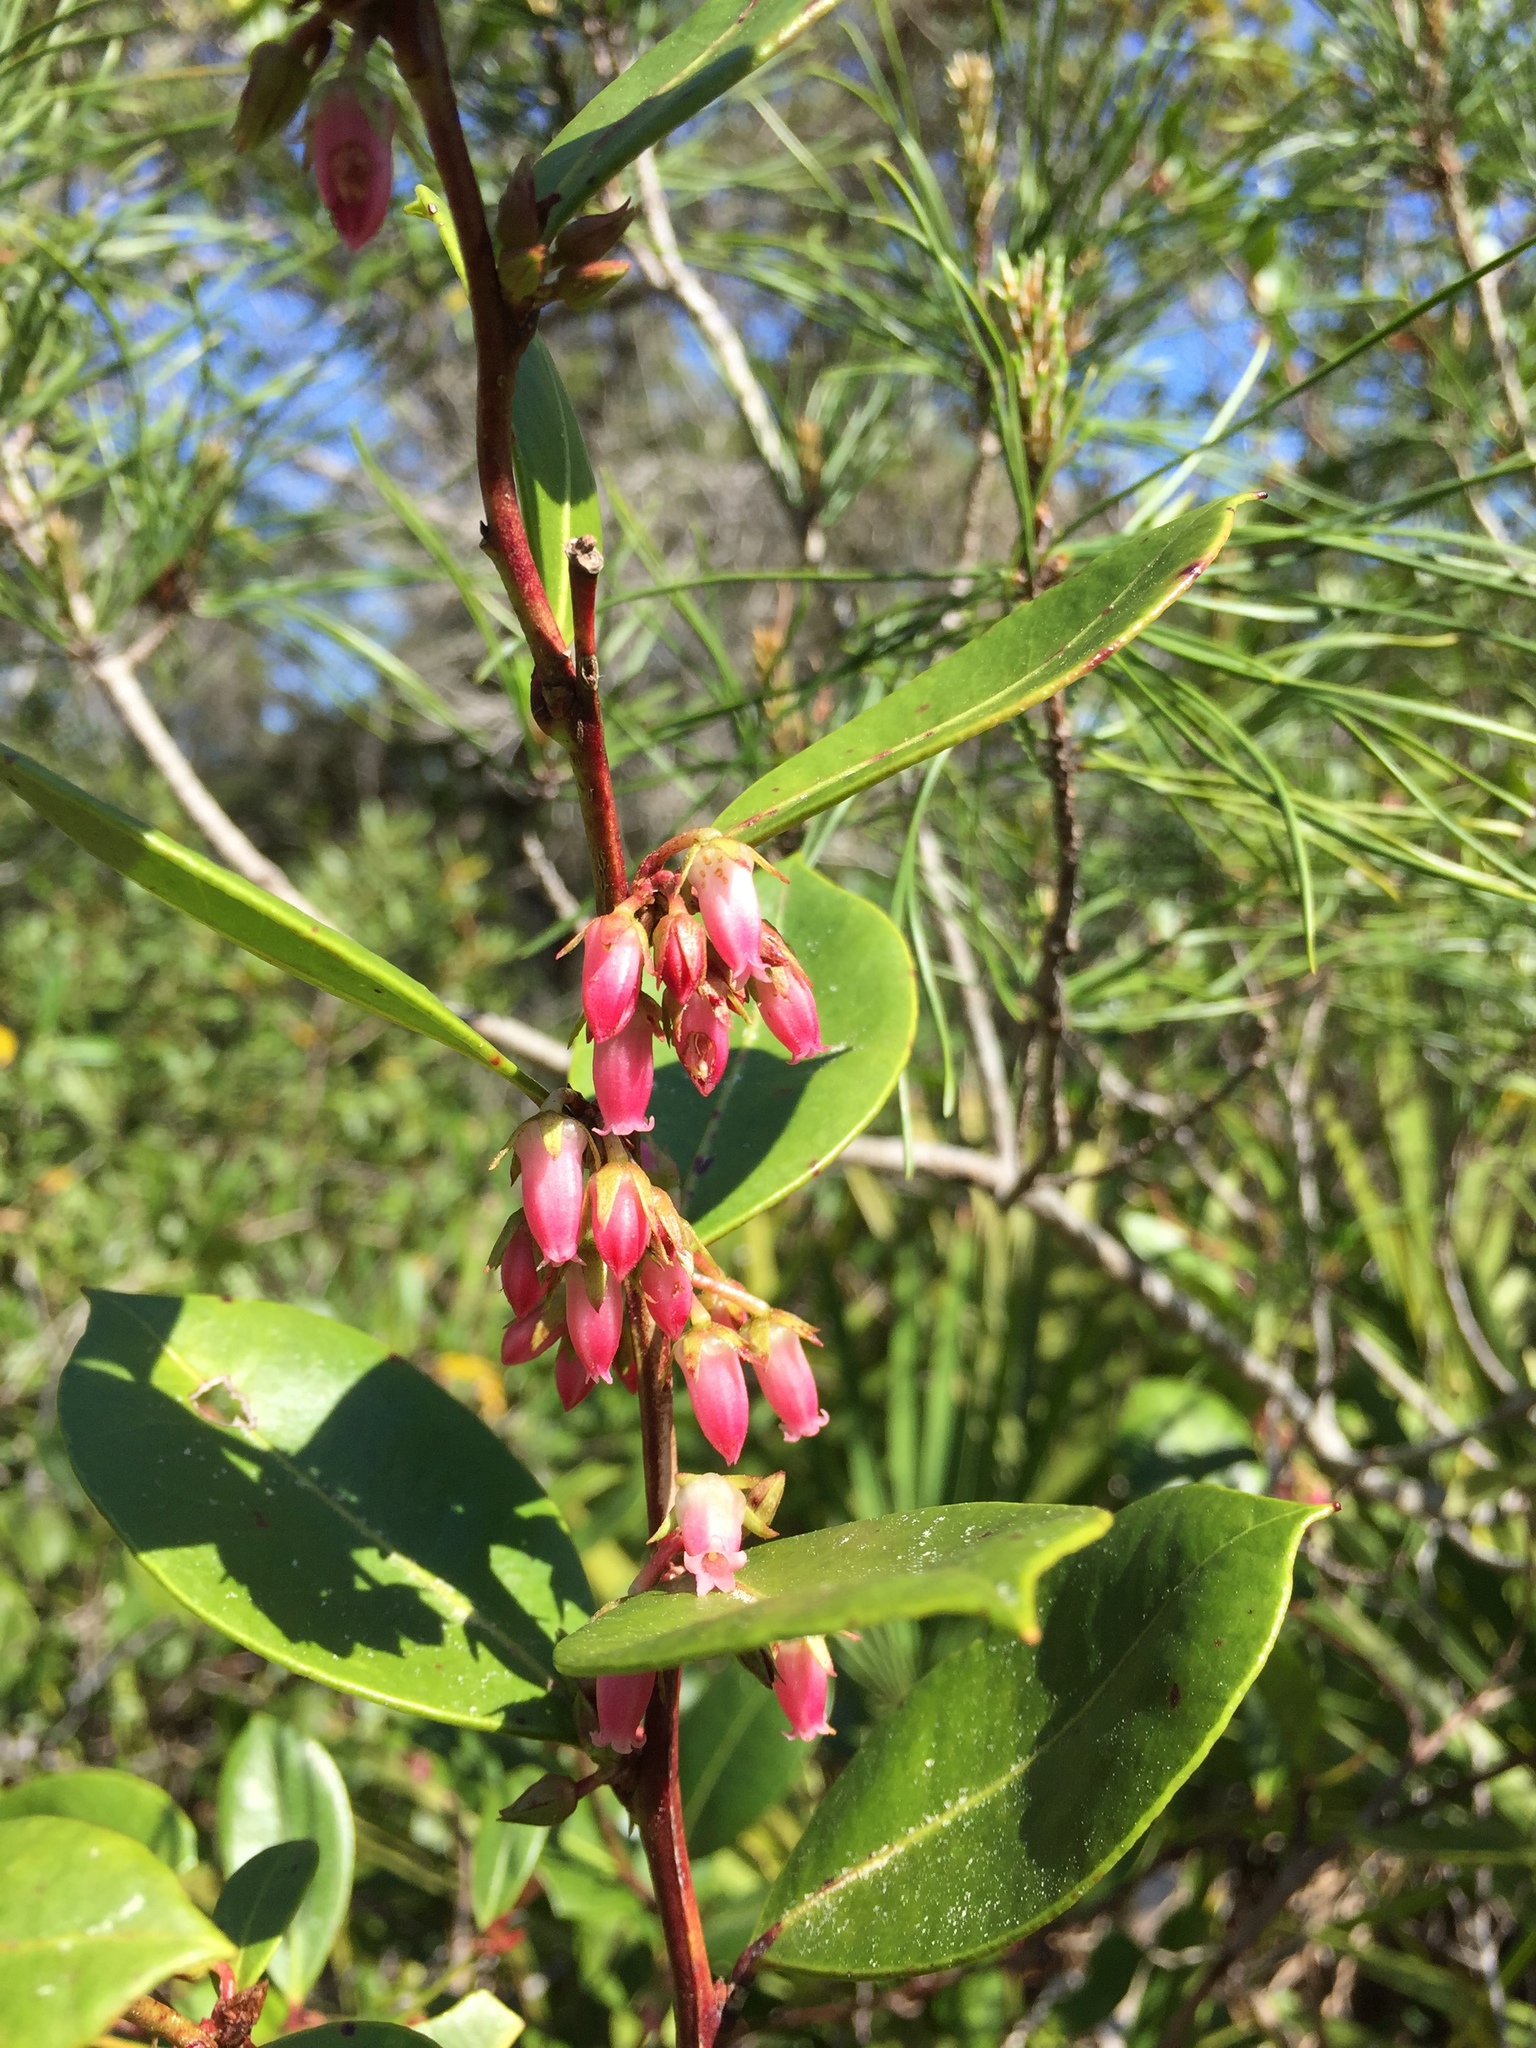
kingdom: Plantae
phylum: Tracheophyta
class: Magnoliopsida
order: Ericales
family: Ericaceae
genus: Lyonia
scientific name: Lyonia lucida
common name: Fetterbush
